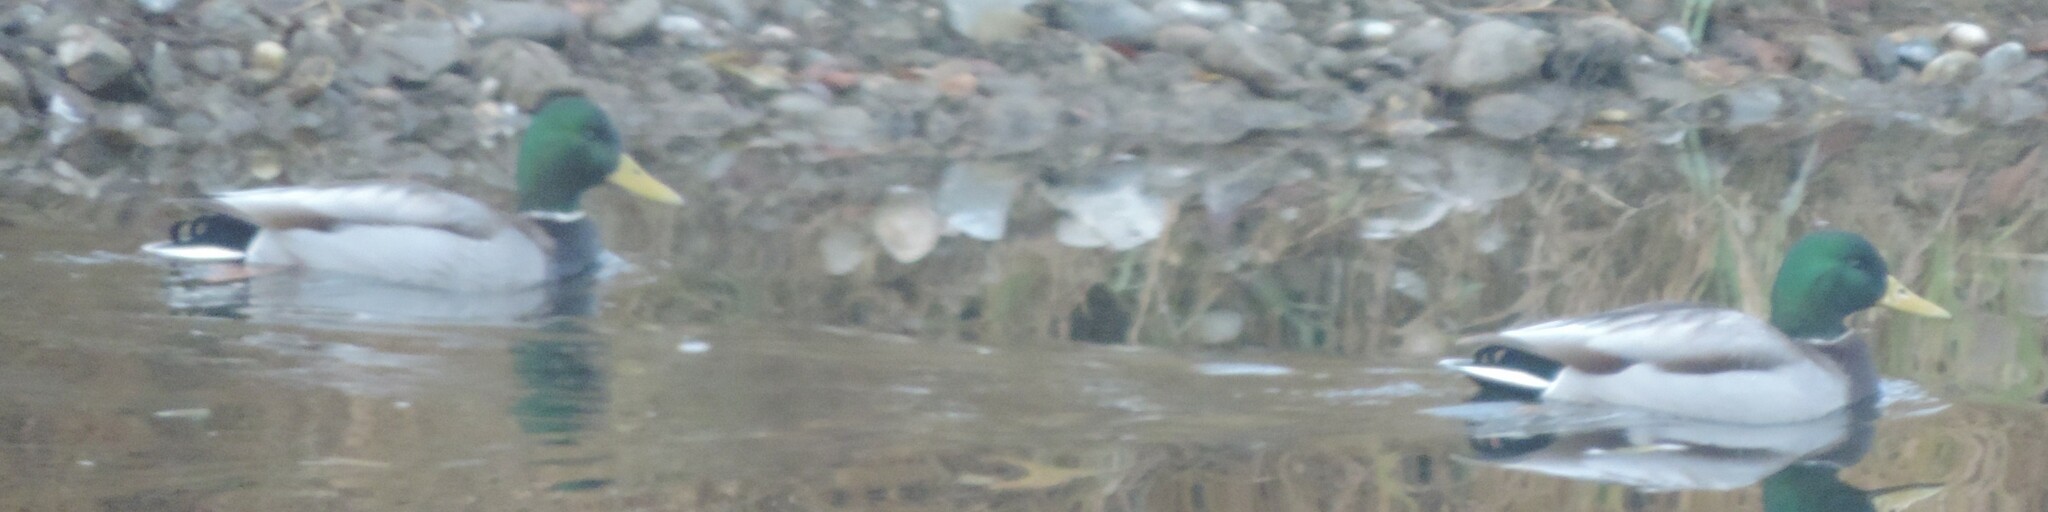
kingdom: Animalia
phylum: Chordata
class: Aves
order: Anseriformes
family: Anatidae
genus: Anas
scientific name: Anas platyrhynchos
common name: Mallard
